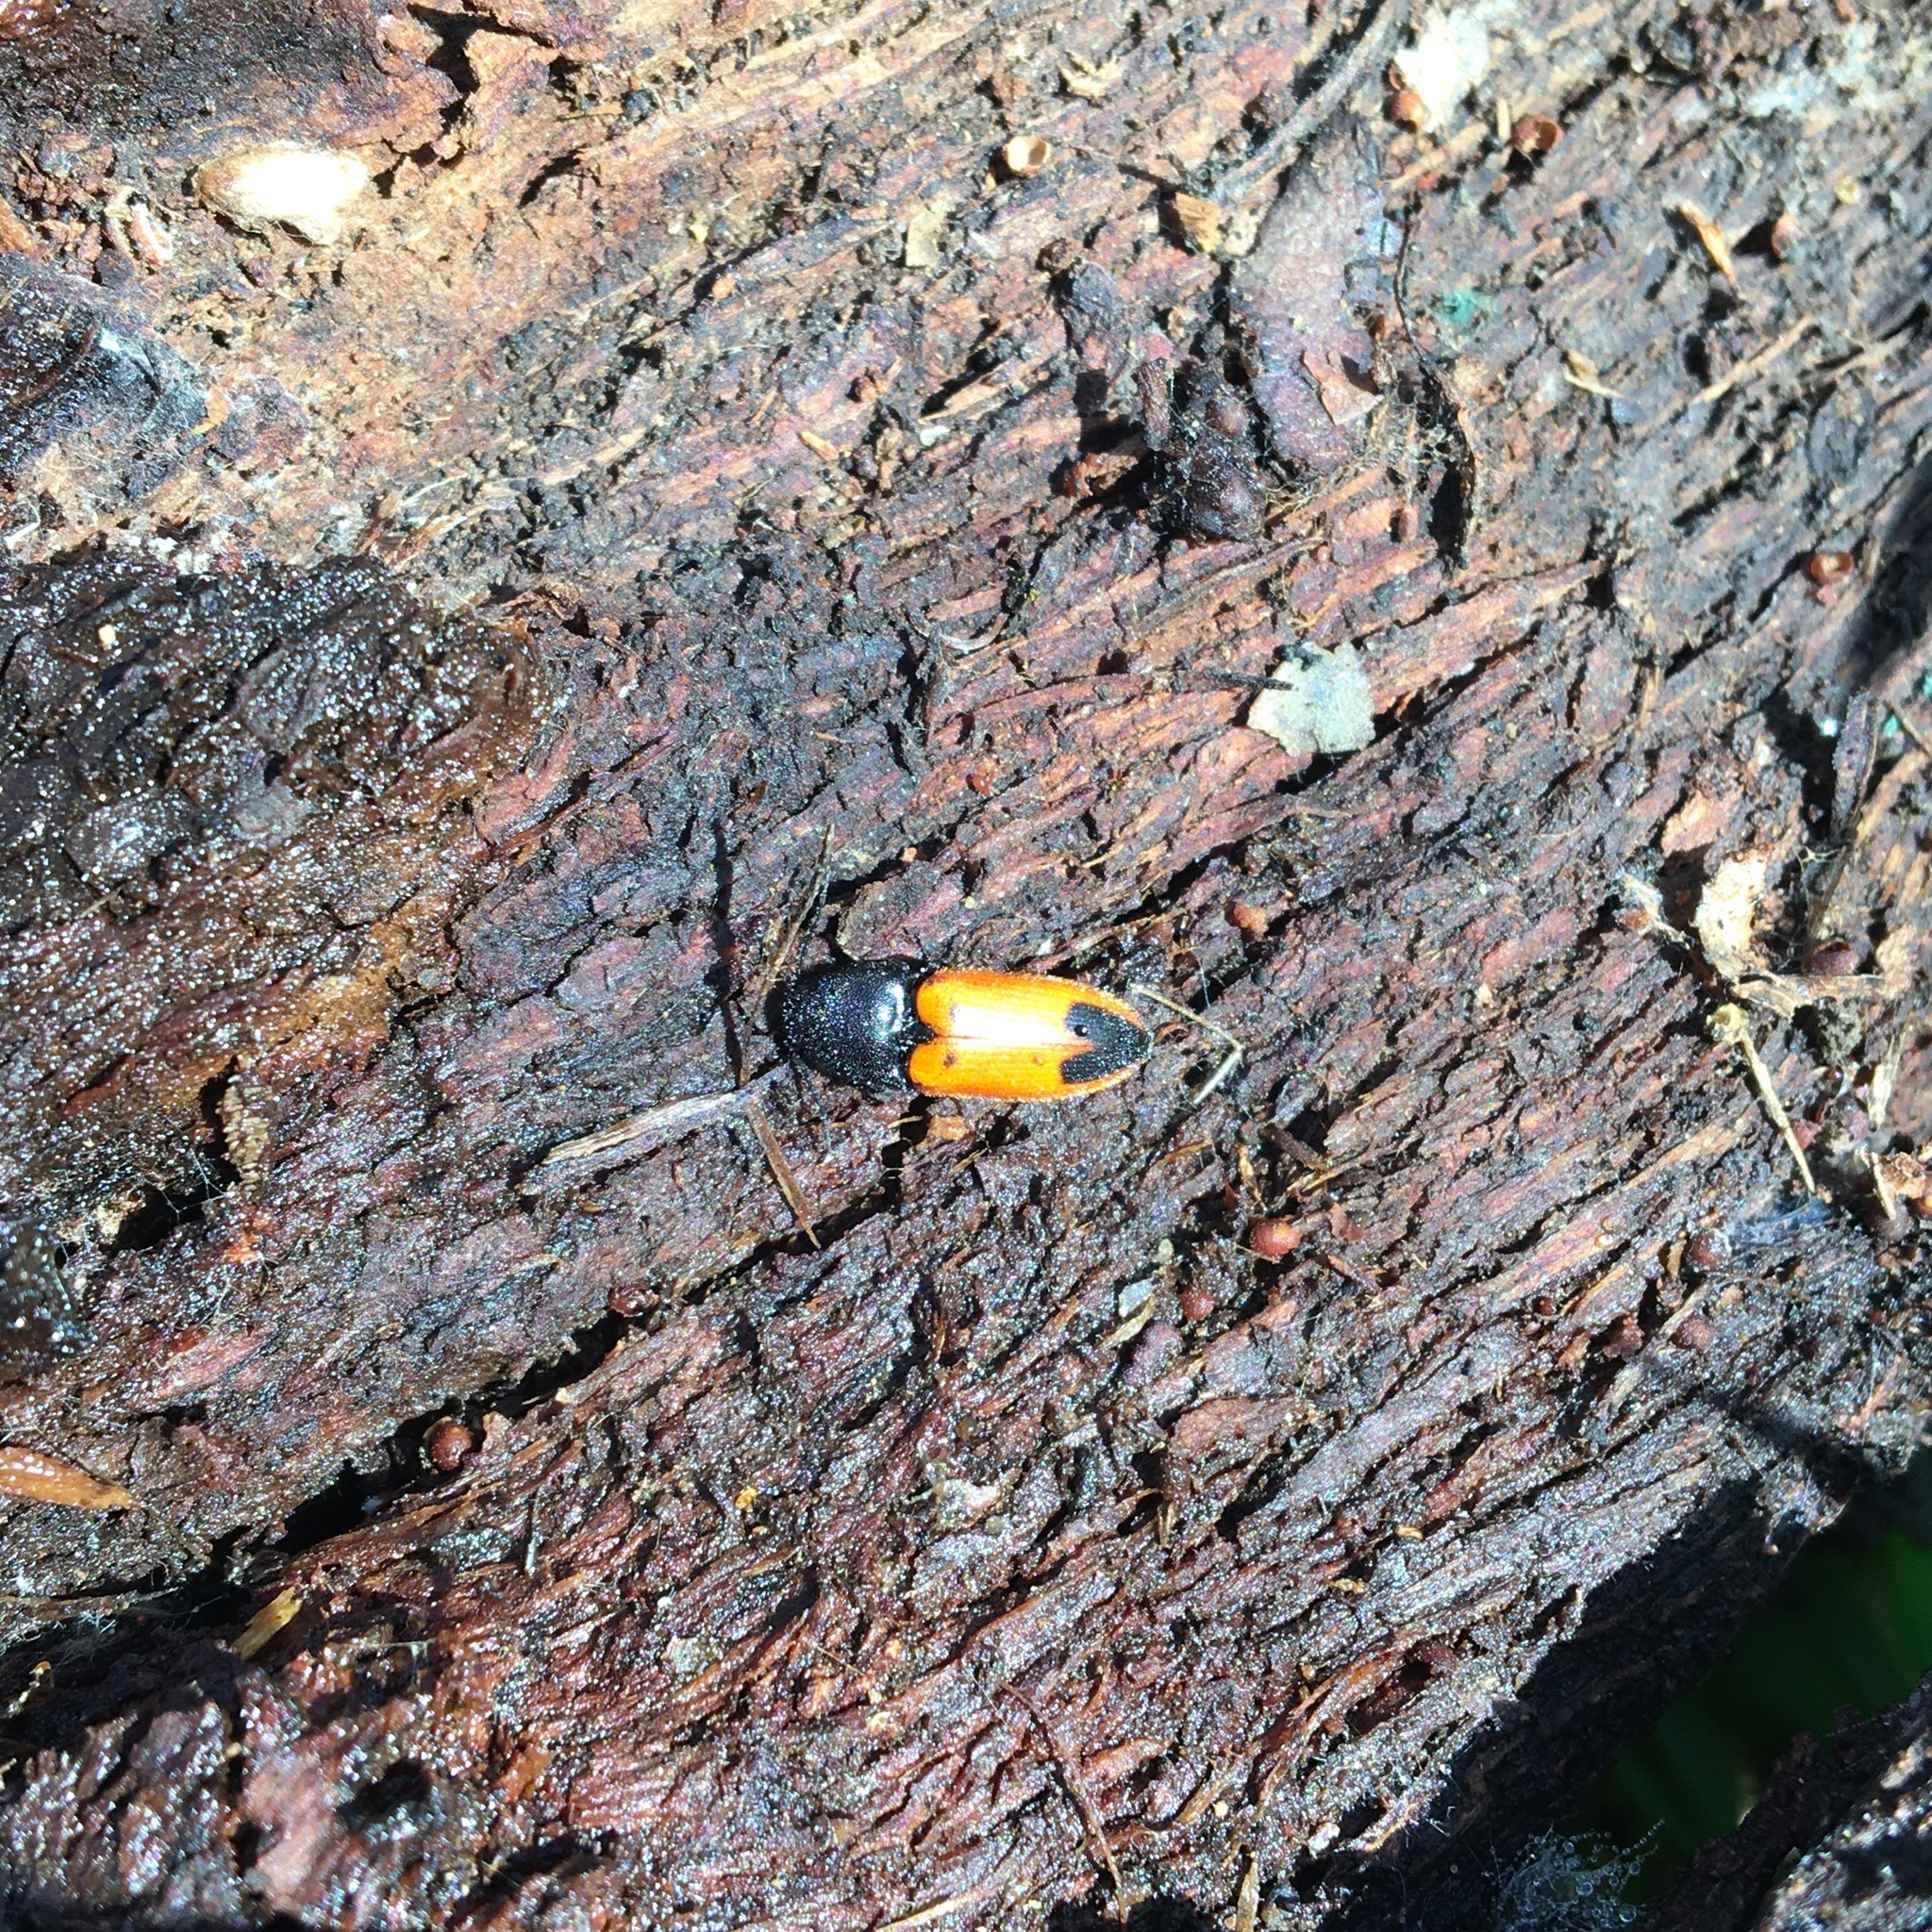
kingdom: Animalia
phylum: Arthropoda
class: Insecta
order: Coleoptera
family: Elateridae
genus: Ampedus
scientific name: Ampedus
